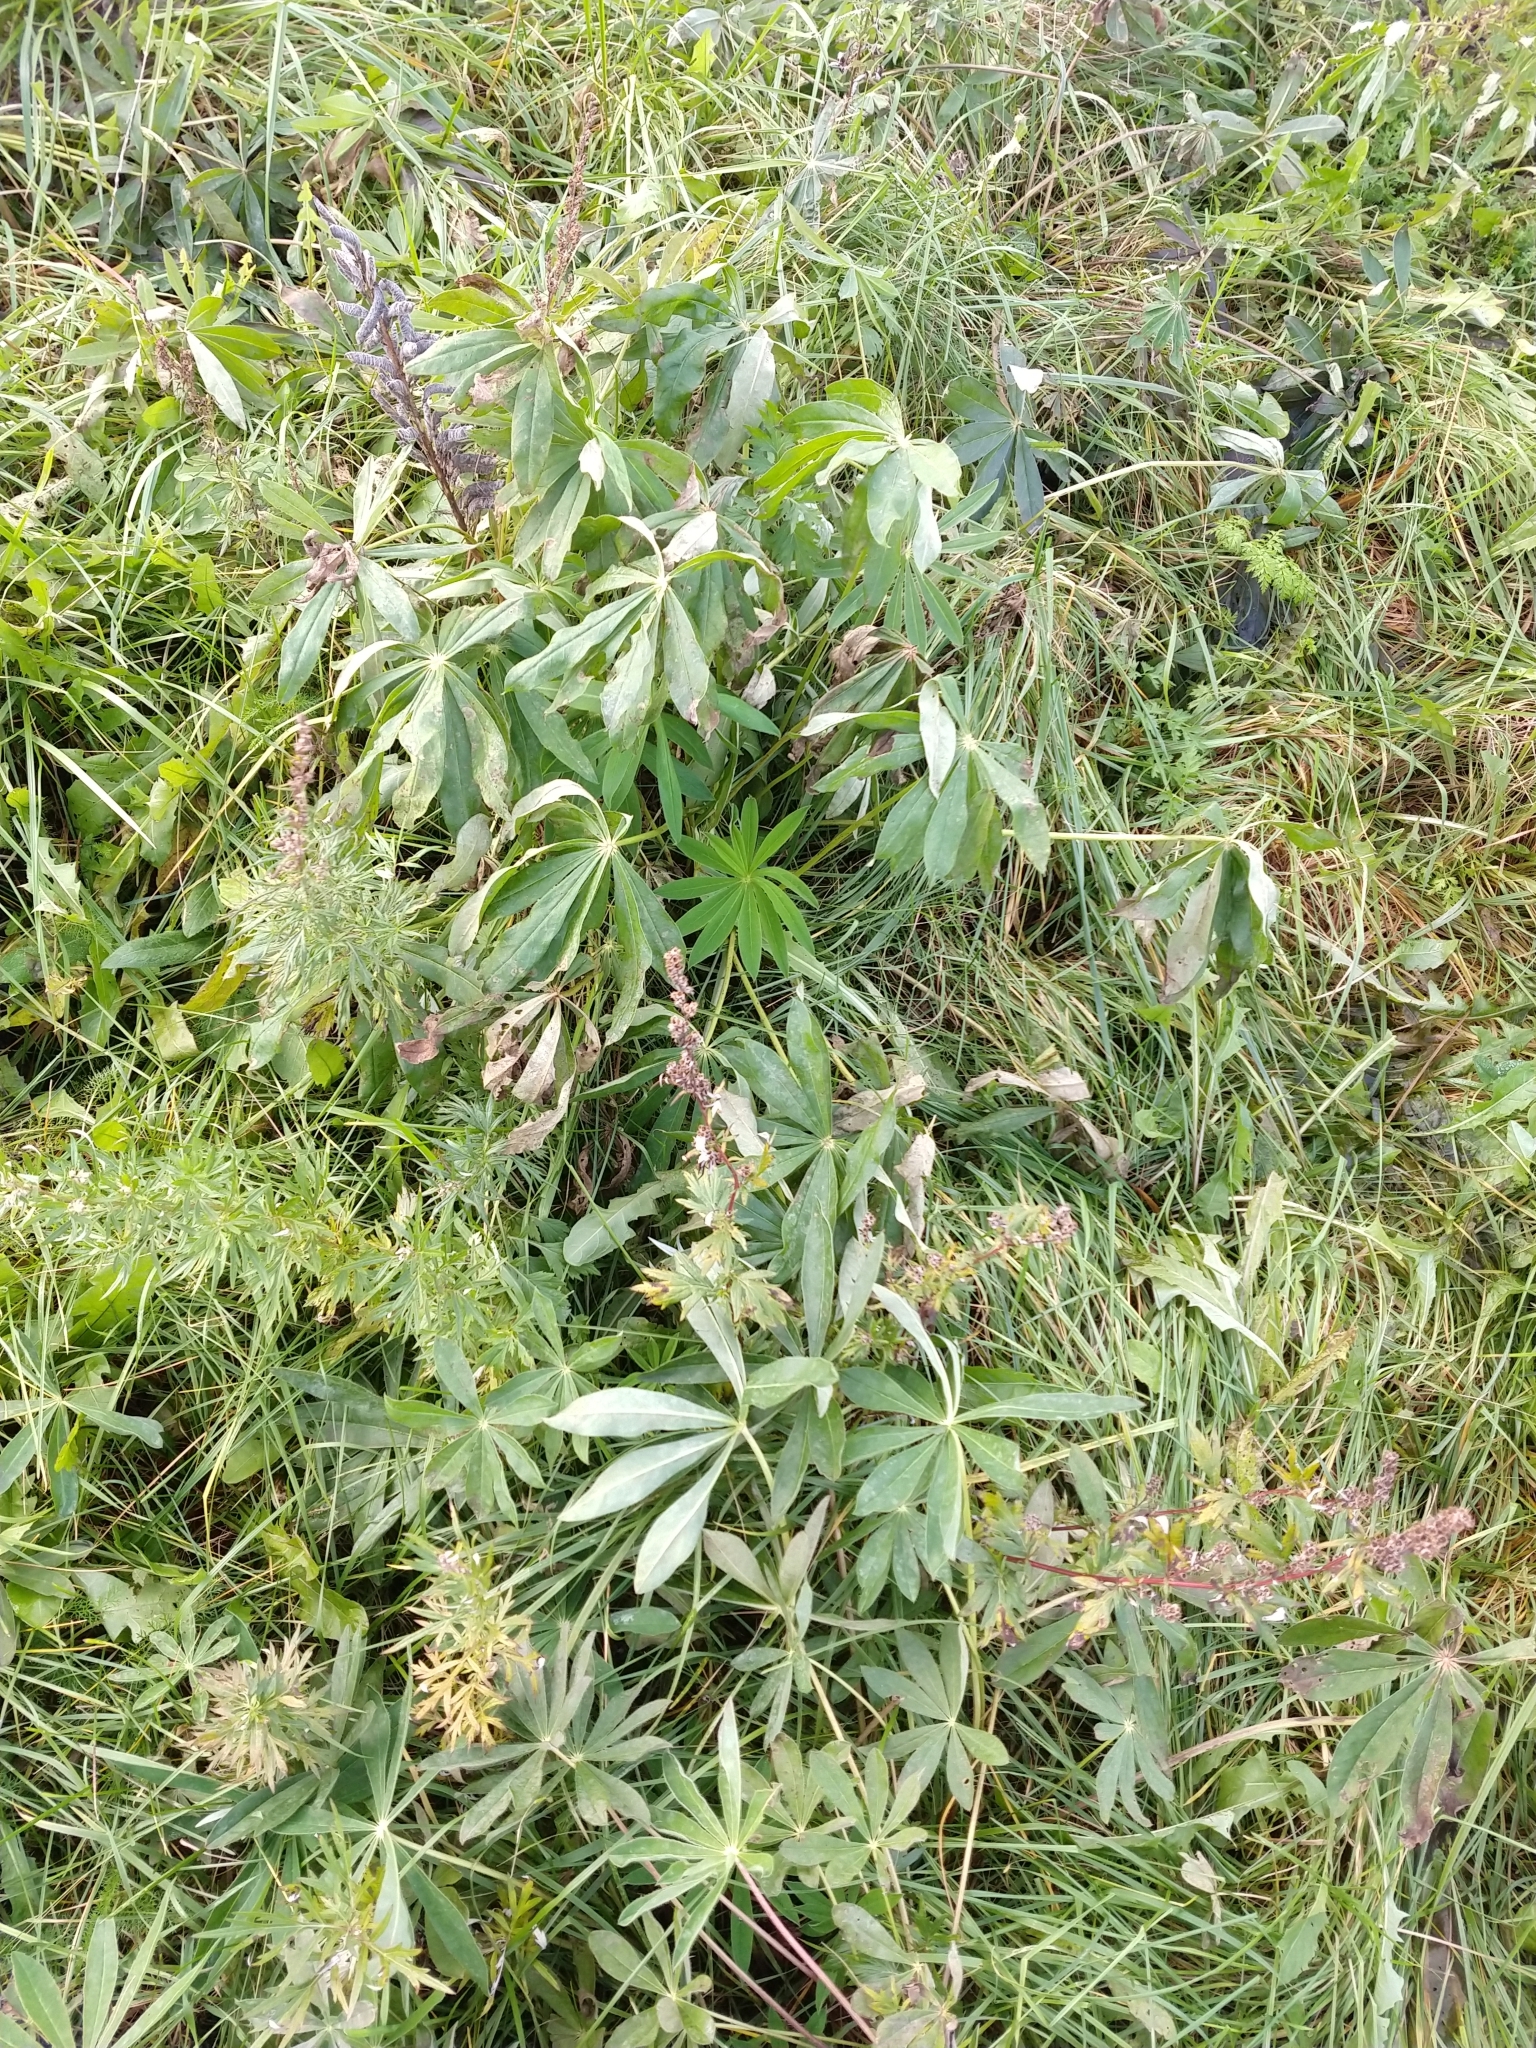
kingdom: Plantae
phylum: Tracheophyta
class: Magnoliopsida
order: Fabales
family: Fabaceae
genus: Lupinus
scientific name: Lupinus polyphyllus
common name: Garden lupin
